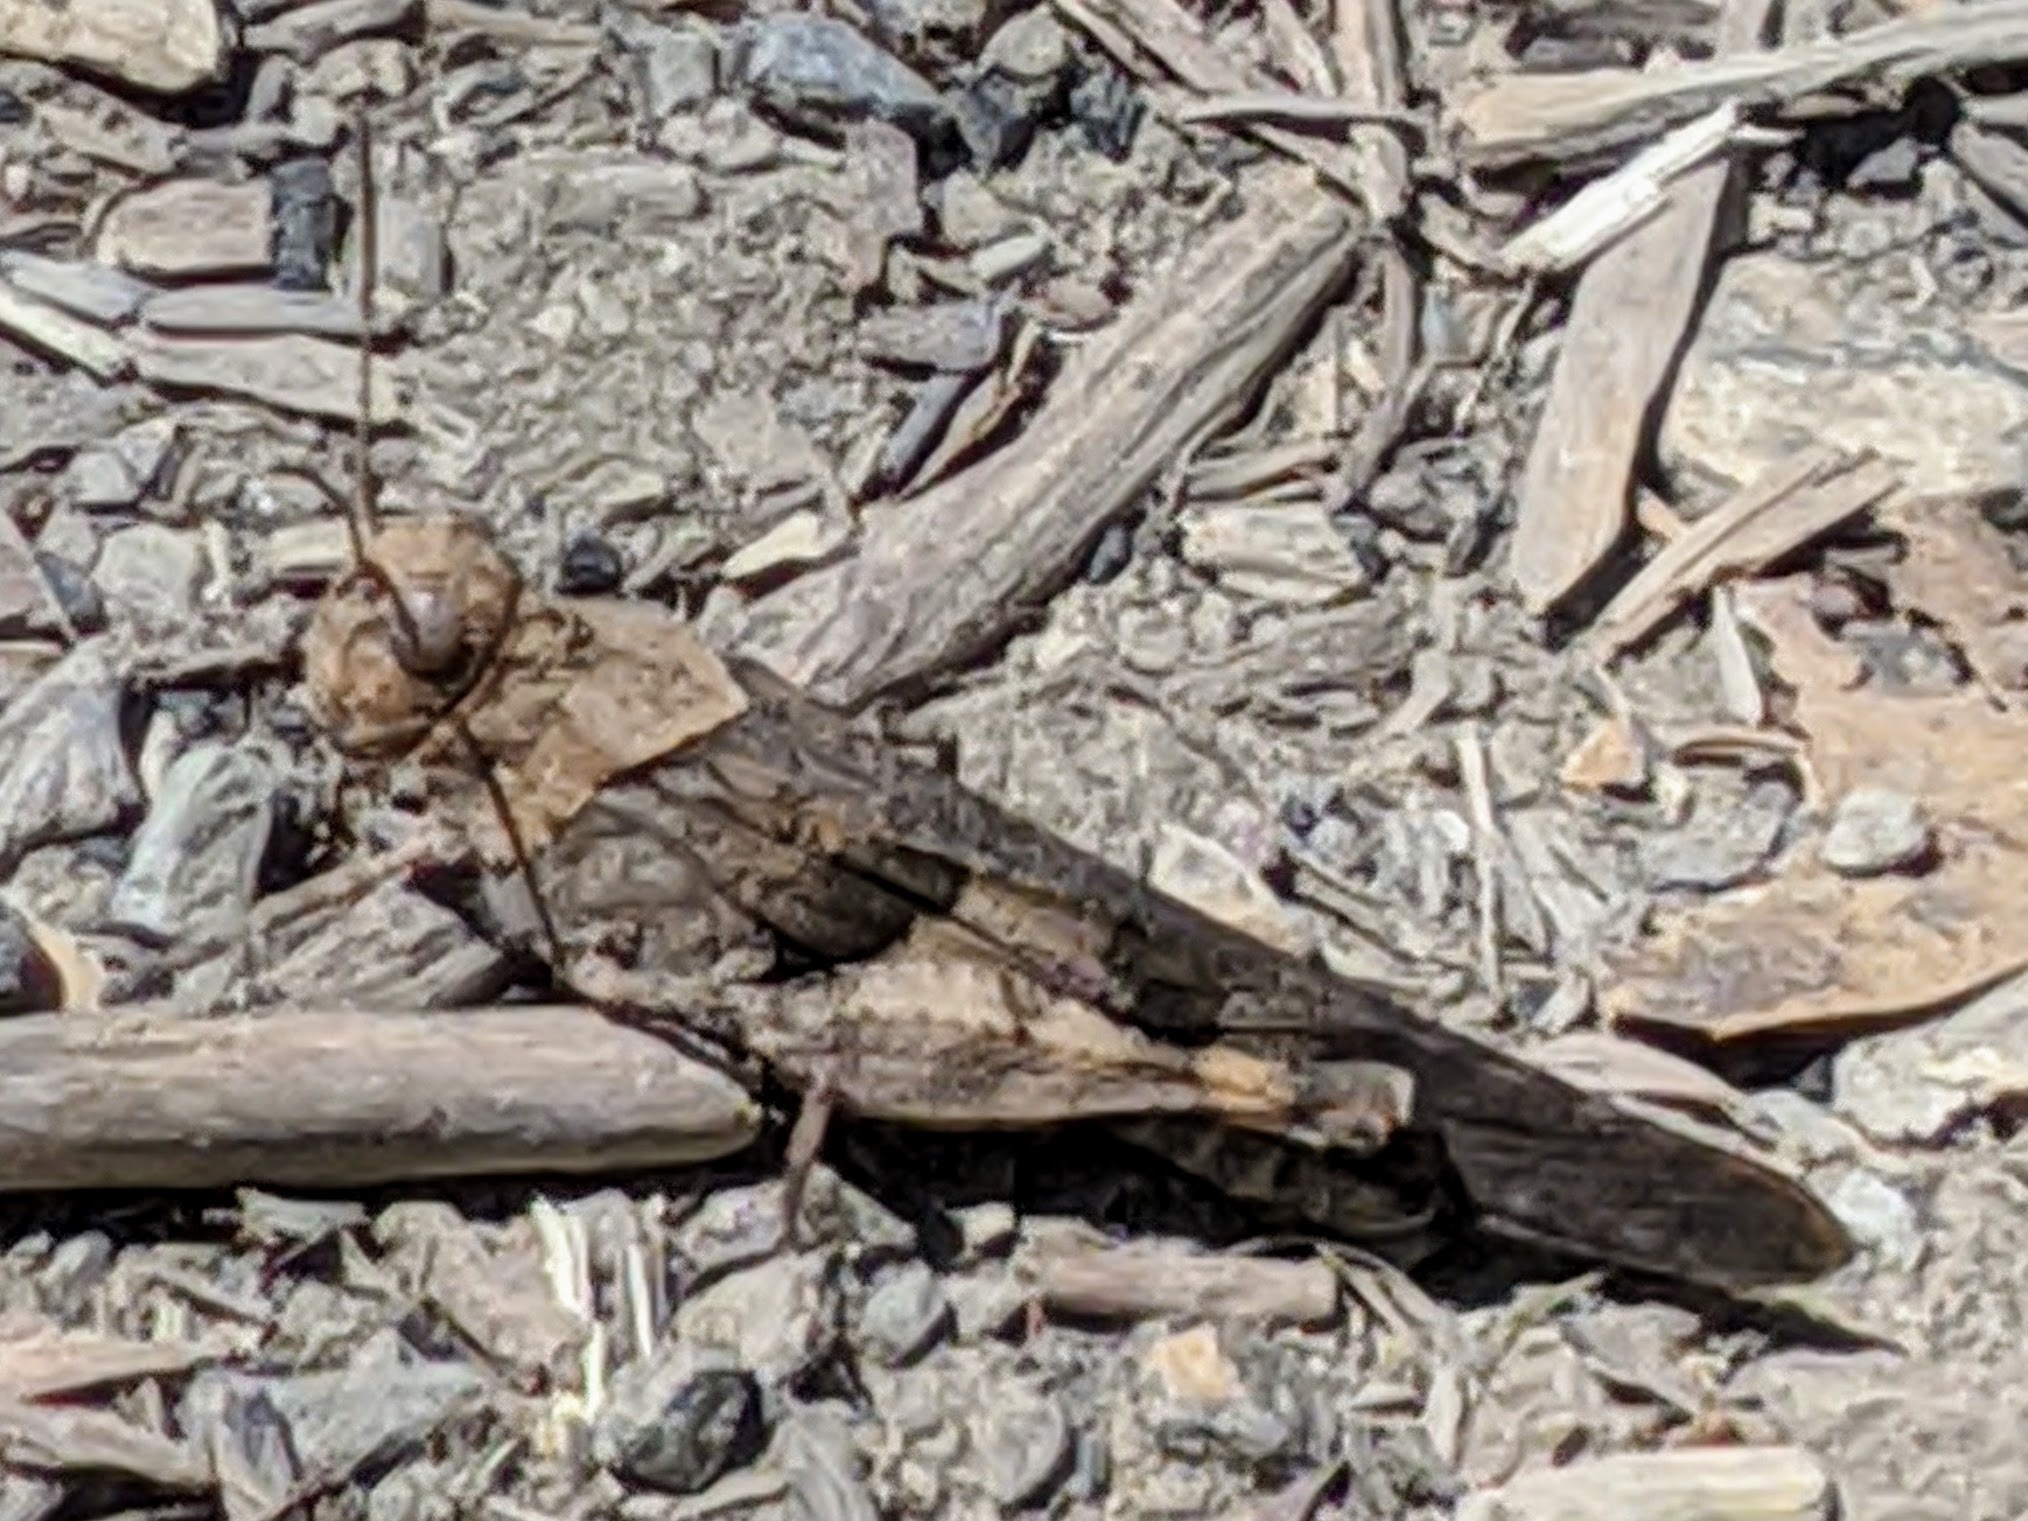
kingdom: Animalia
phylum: Arthropoda
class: Insecta
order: Orthoptera
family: Acrididae
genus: Trimerotropis
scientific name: Trimerotropis fontana
